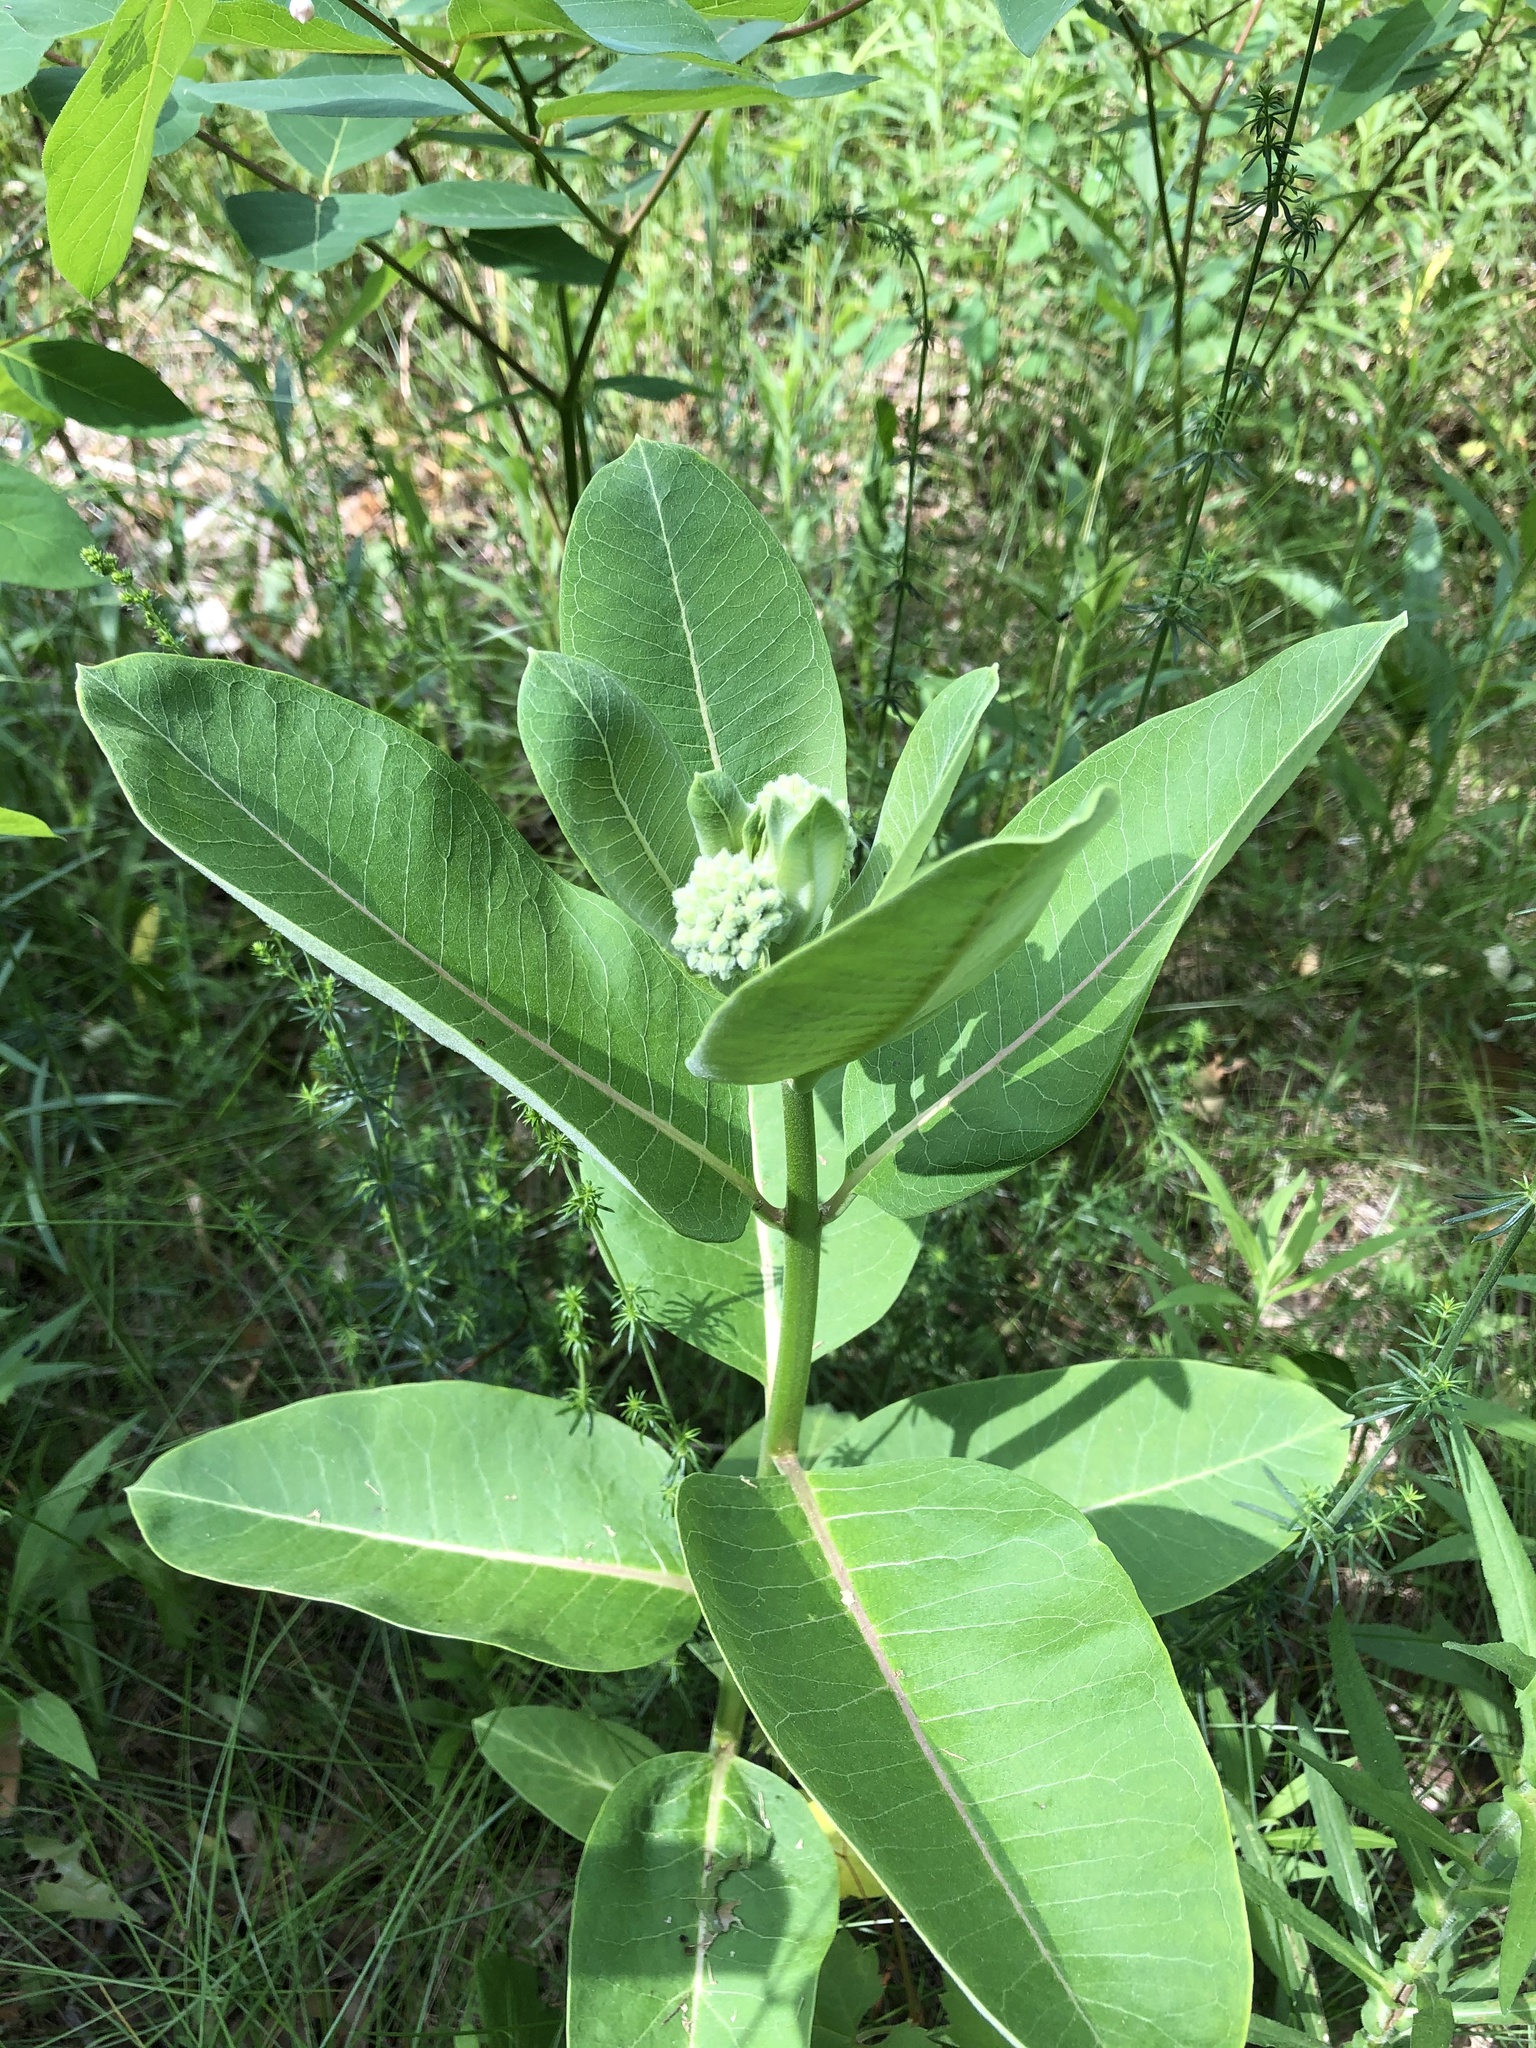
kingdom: Plantae
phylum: Tracheophyta
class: Magnoliopsida
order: Gentianales
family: Apocynaceae
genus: Asclepias
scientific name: Asclepias syriaca
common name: Common milkweed
